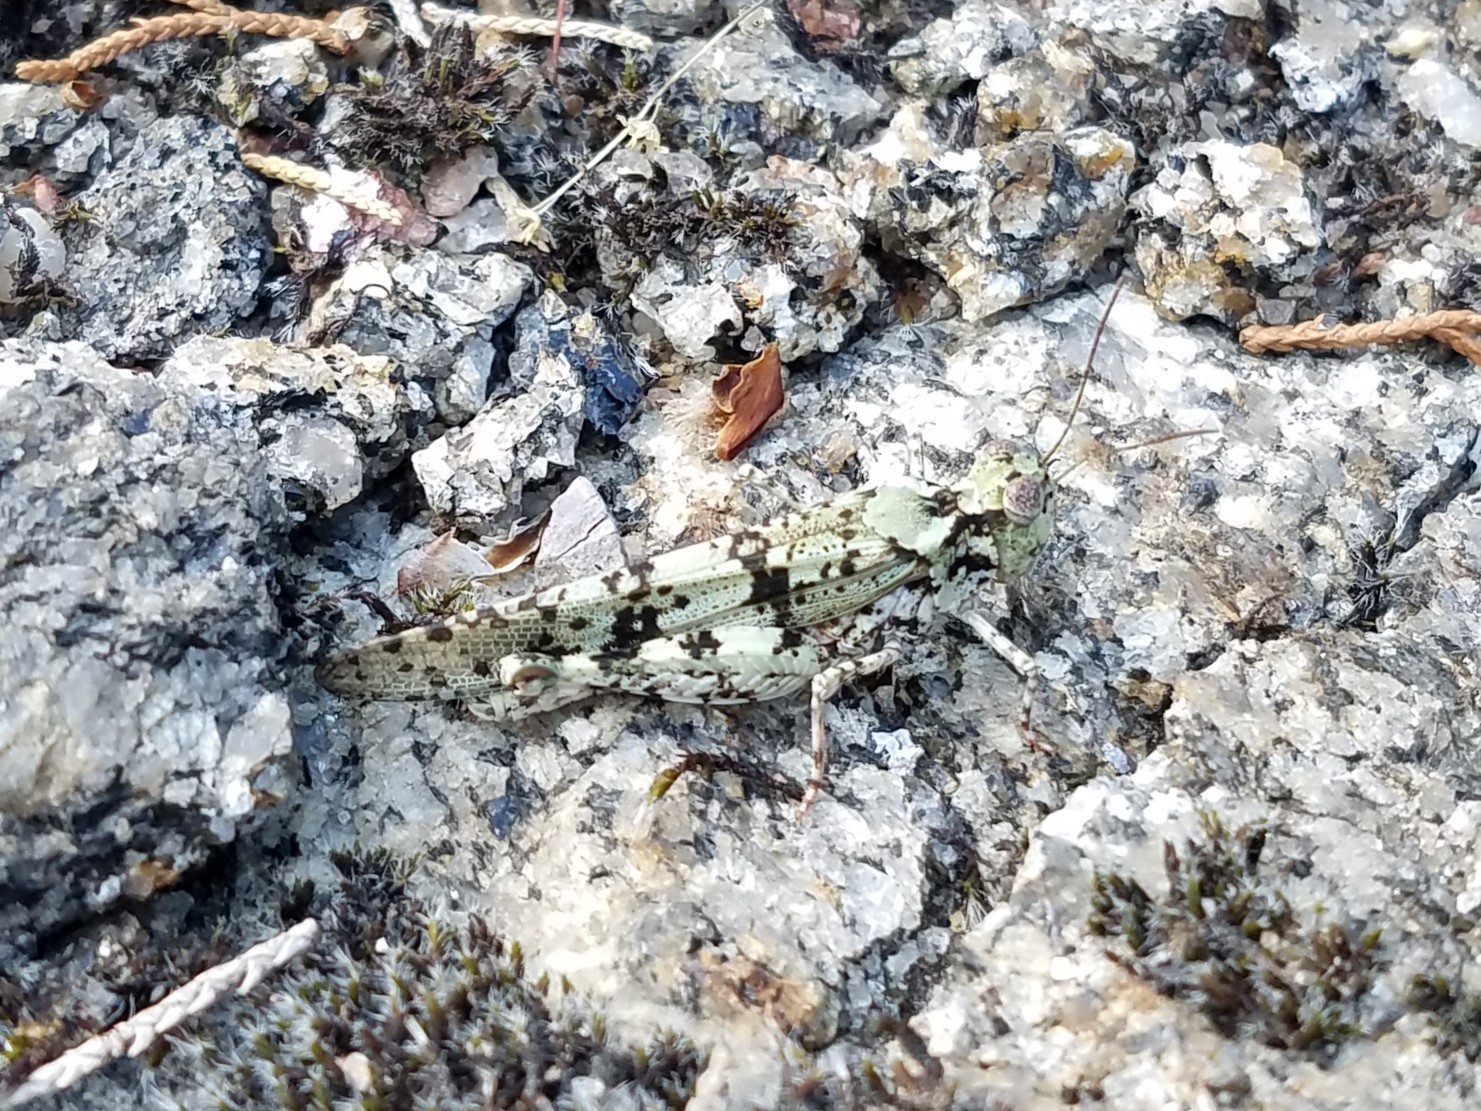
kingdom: Animalia
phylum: Arthropoda
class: Insecta
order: Orthoptera
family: Acrididae
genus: Trimerotropis
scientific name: Trimerotropis saxatilis
